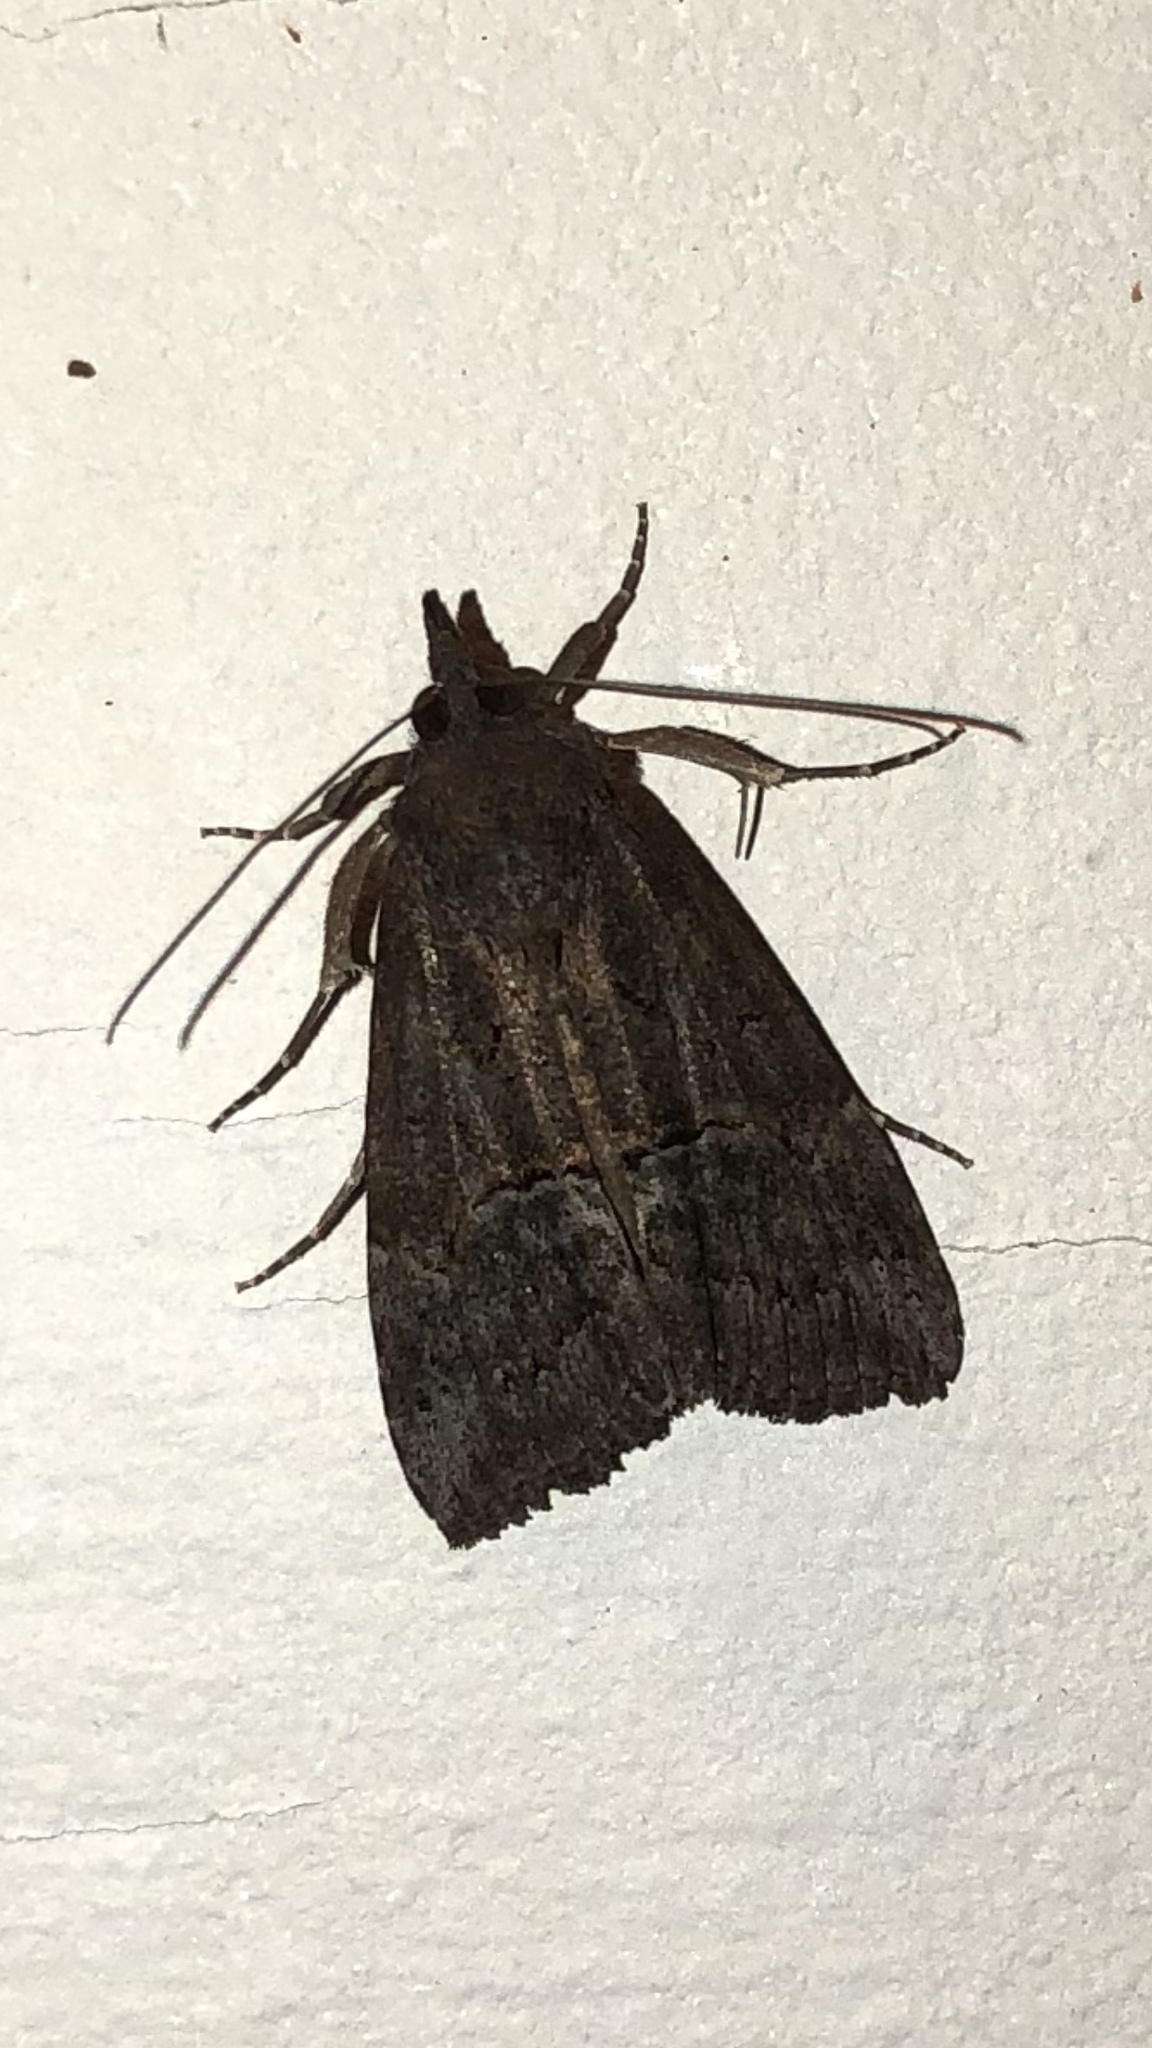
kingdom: Animalia
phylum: Arthropoda
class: Insecta
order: Lepidoptera
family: Erebidae
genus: Hypena
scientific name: Hypena scabra
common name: Green cloverworm
